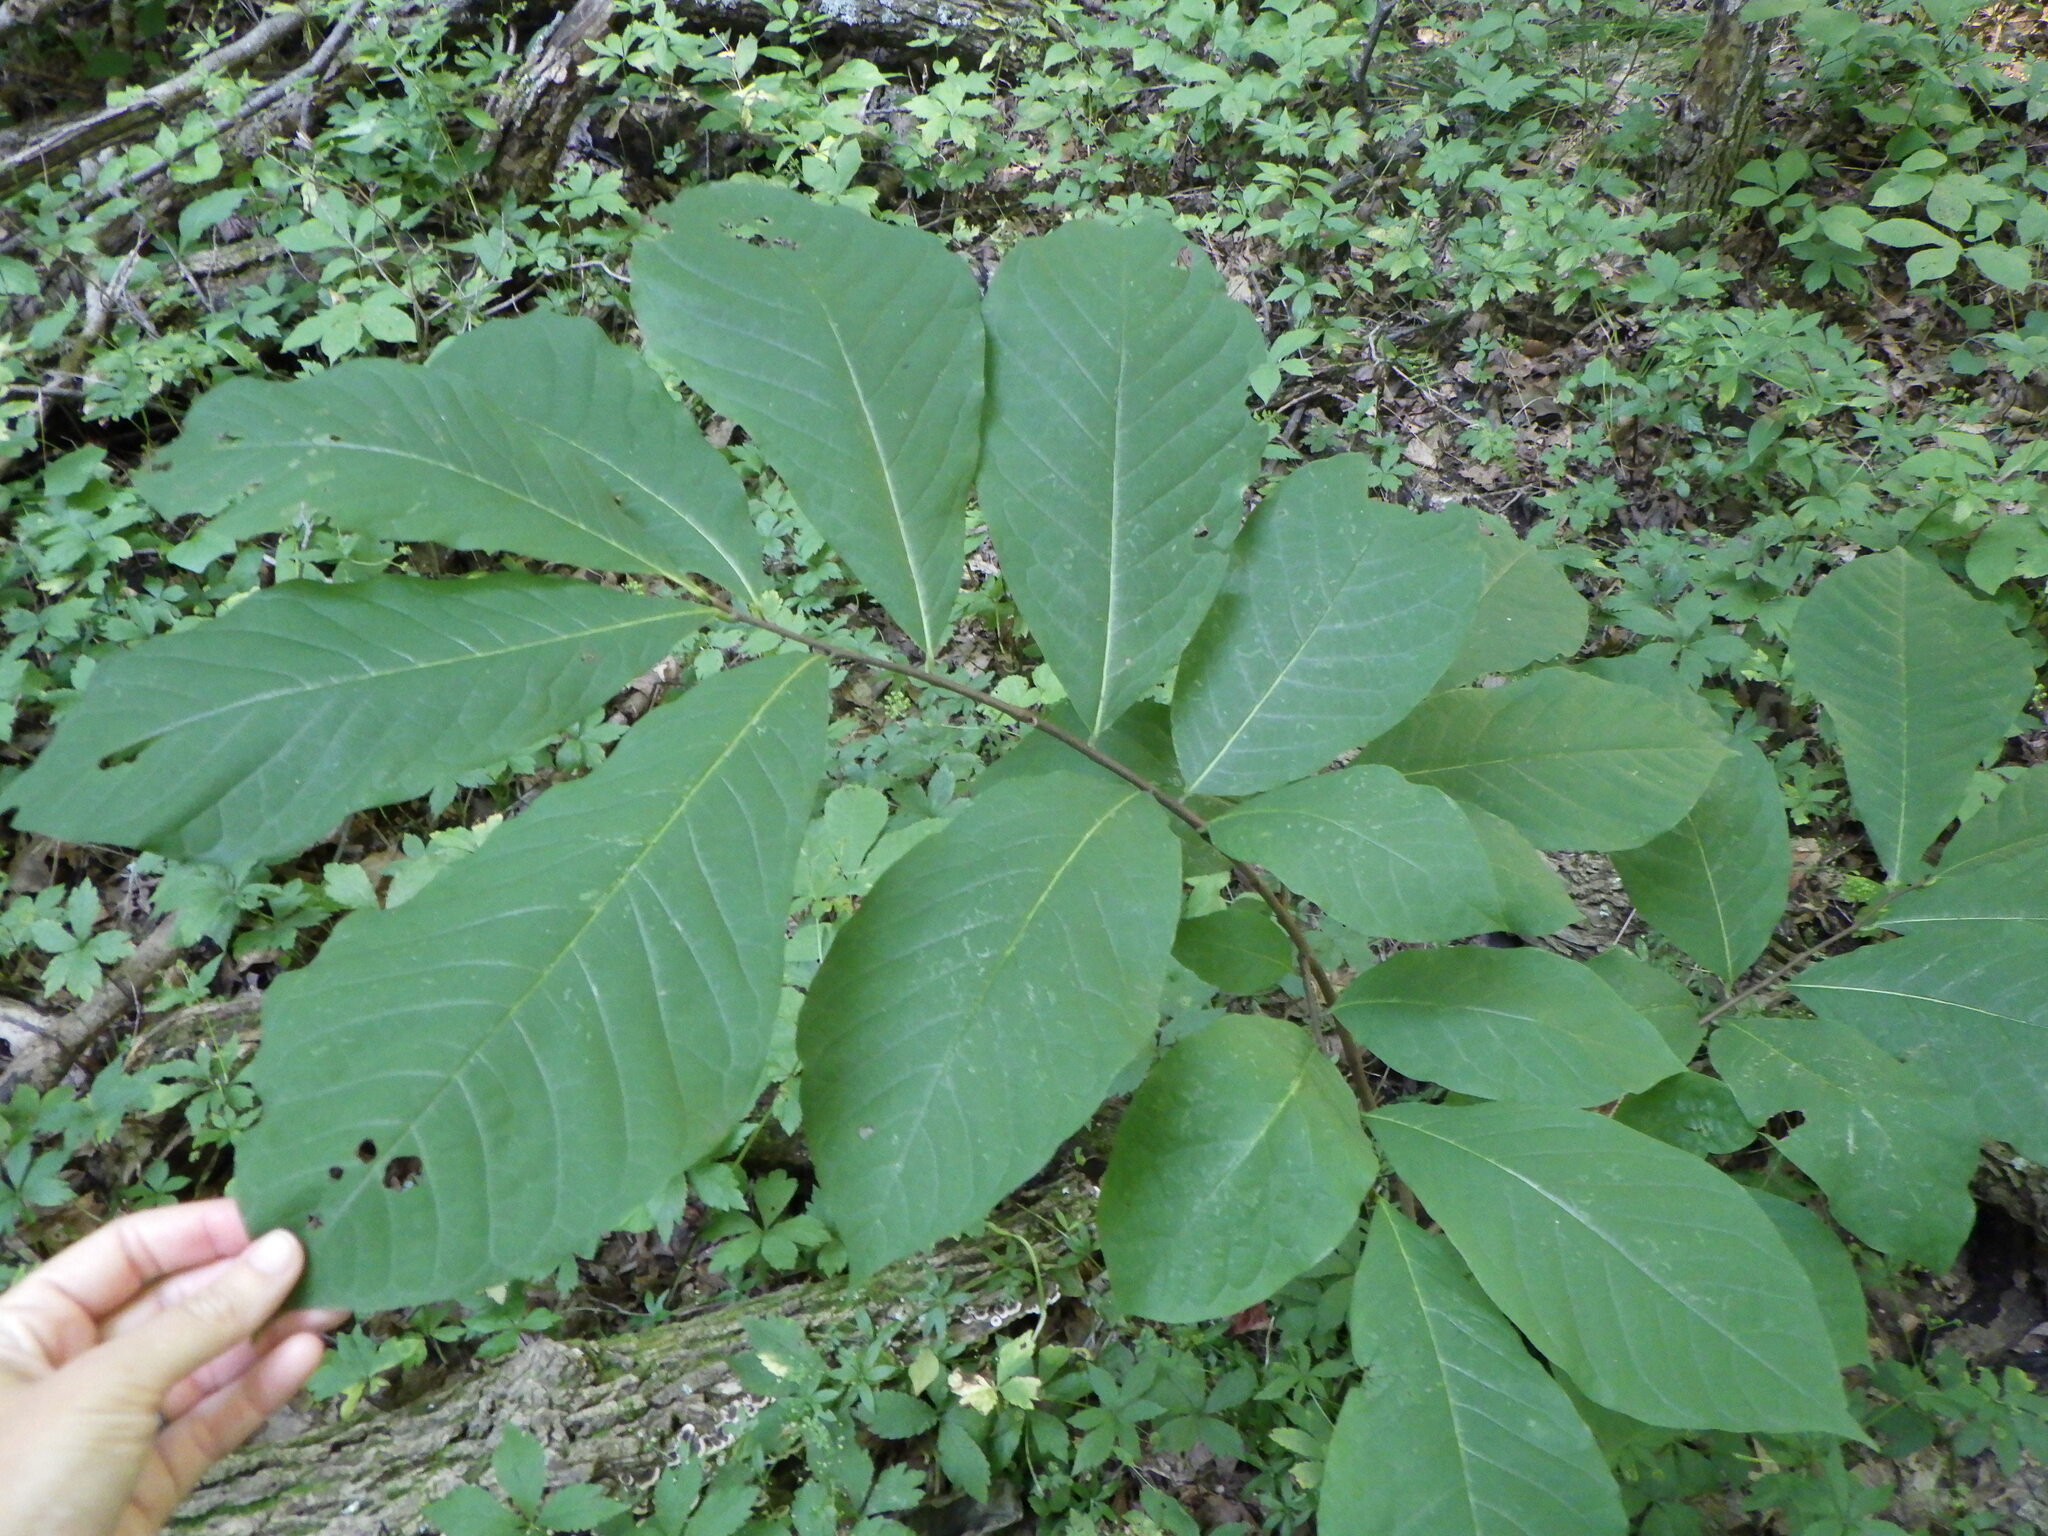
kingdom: Plantae
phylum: Tracheophyta
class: Magnoliopsida
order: Magnoliales
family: Annonaceae
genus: Asimina
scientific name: Asimina triloba
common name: Dog-banana
